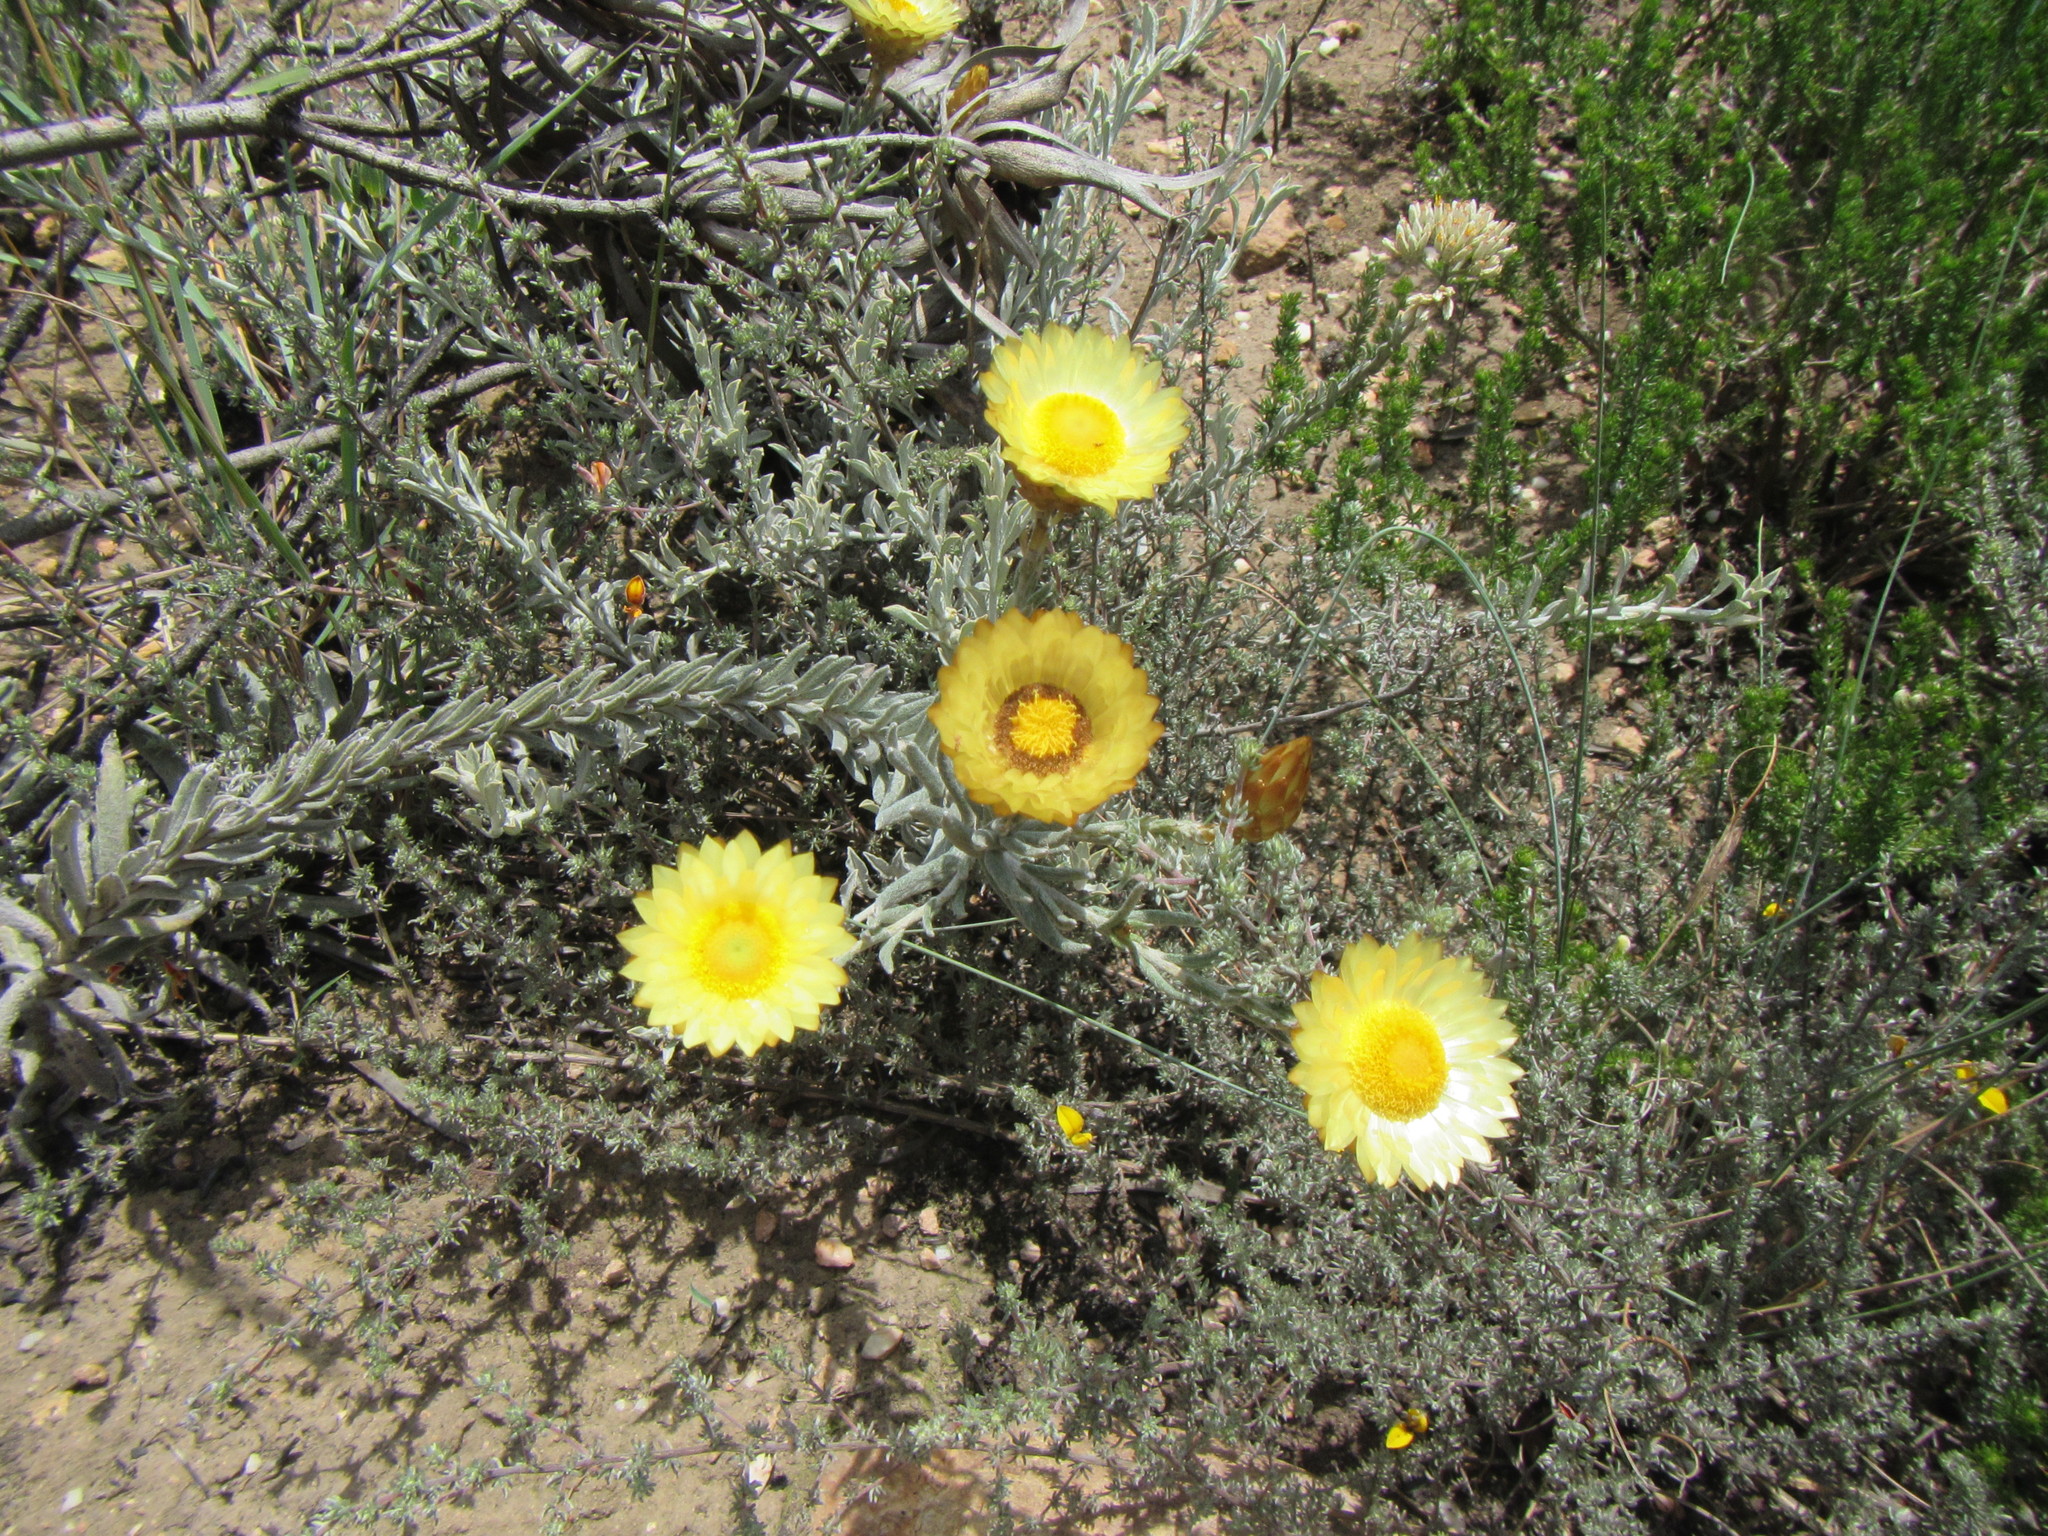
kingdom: Plantae
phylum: Tracheophyta
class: Magnoliopsida
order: Asterales
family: Asteraceae
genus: Helichrysum
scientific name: Helichrysum herbaceum
